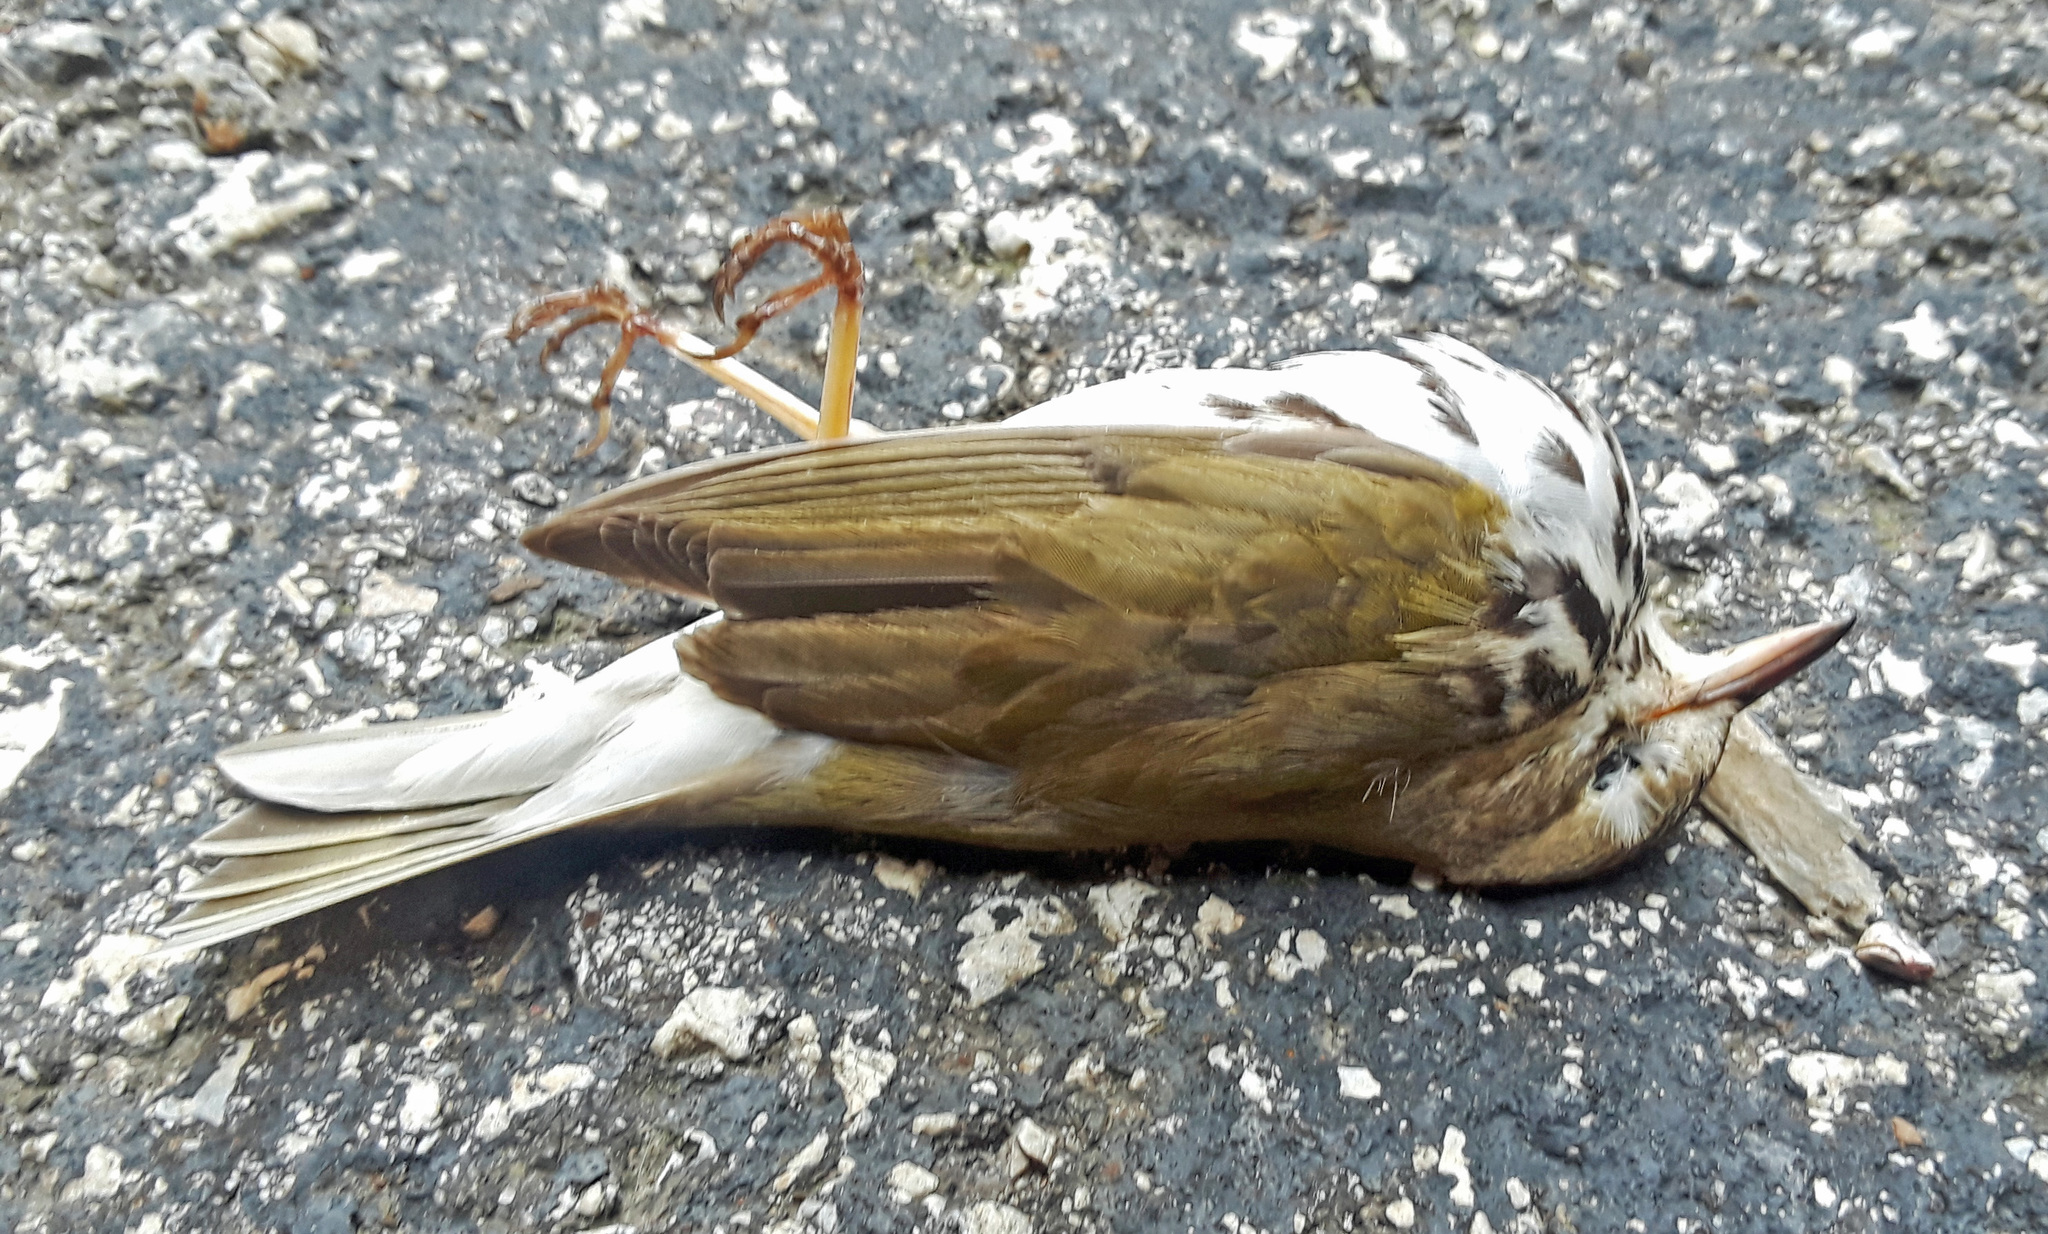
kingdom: Animalia
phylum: Chordata
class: Aves
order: Passeriformes
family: Parulidae
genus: Seiurus
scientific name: Seiurus aurocapilla
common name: Ovenbird
